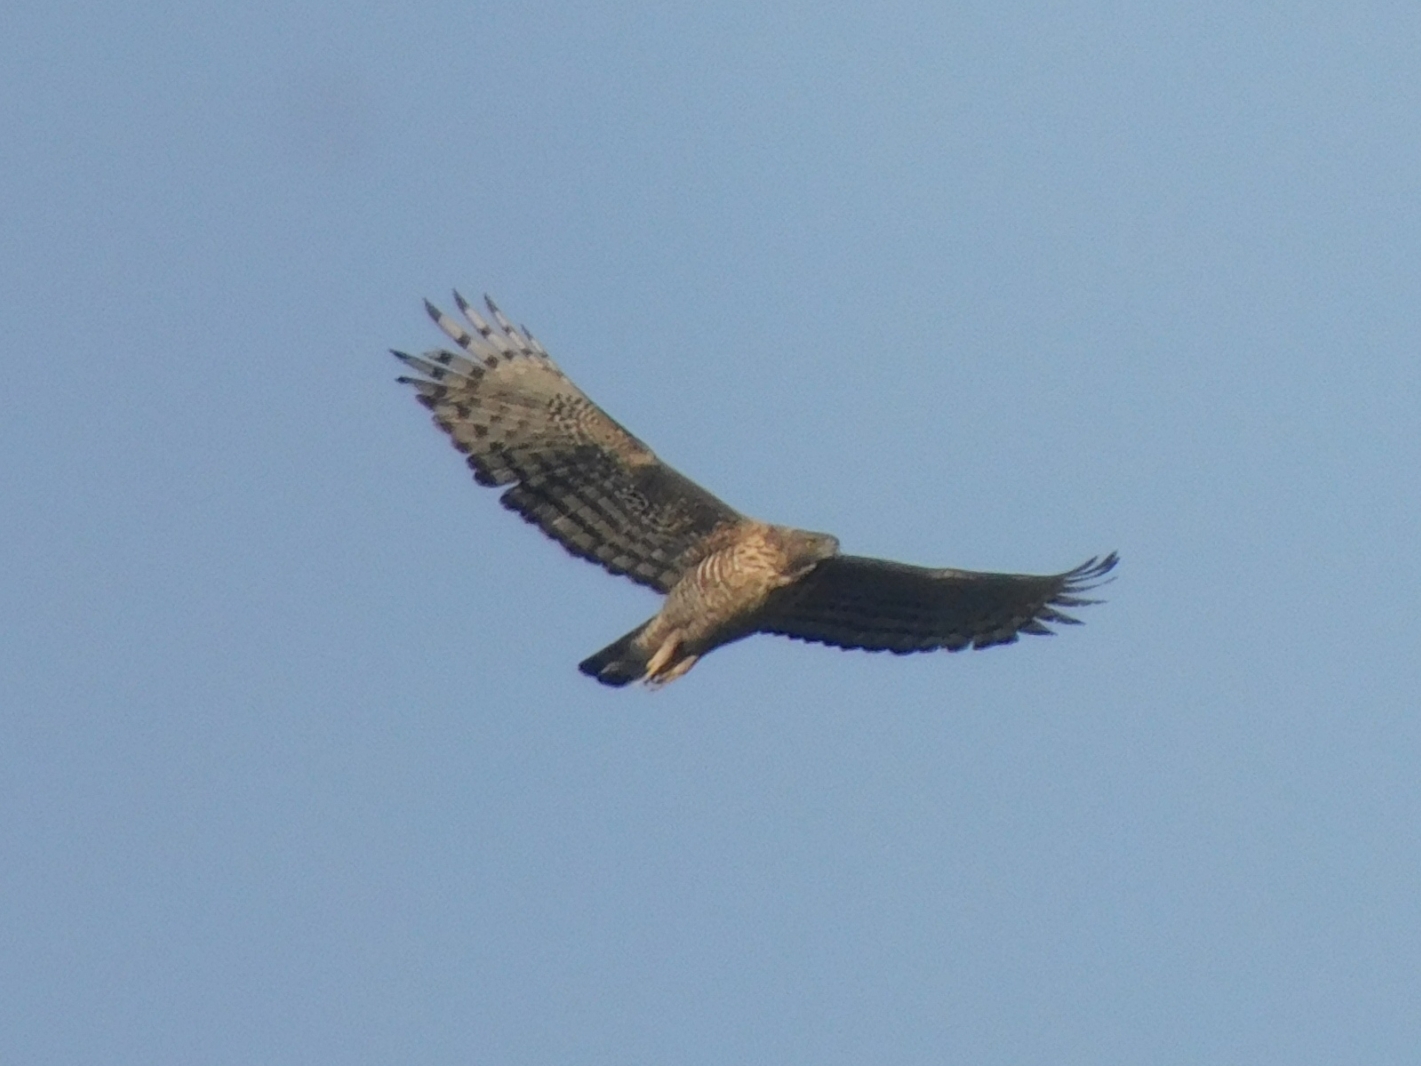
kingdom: Animalia
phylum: Chordata
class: Aves
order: Accipitriformes
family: Accipitridae
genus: Nisaetus
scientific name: Nisaetus nipalensis
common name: Mountain hawk-eagle
